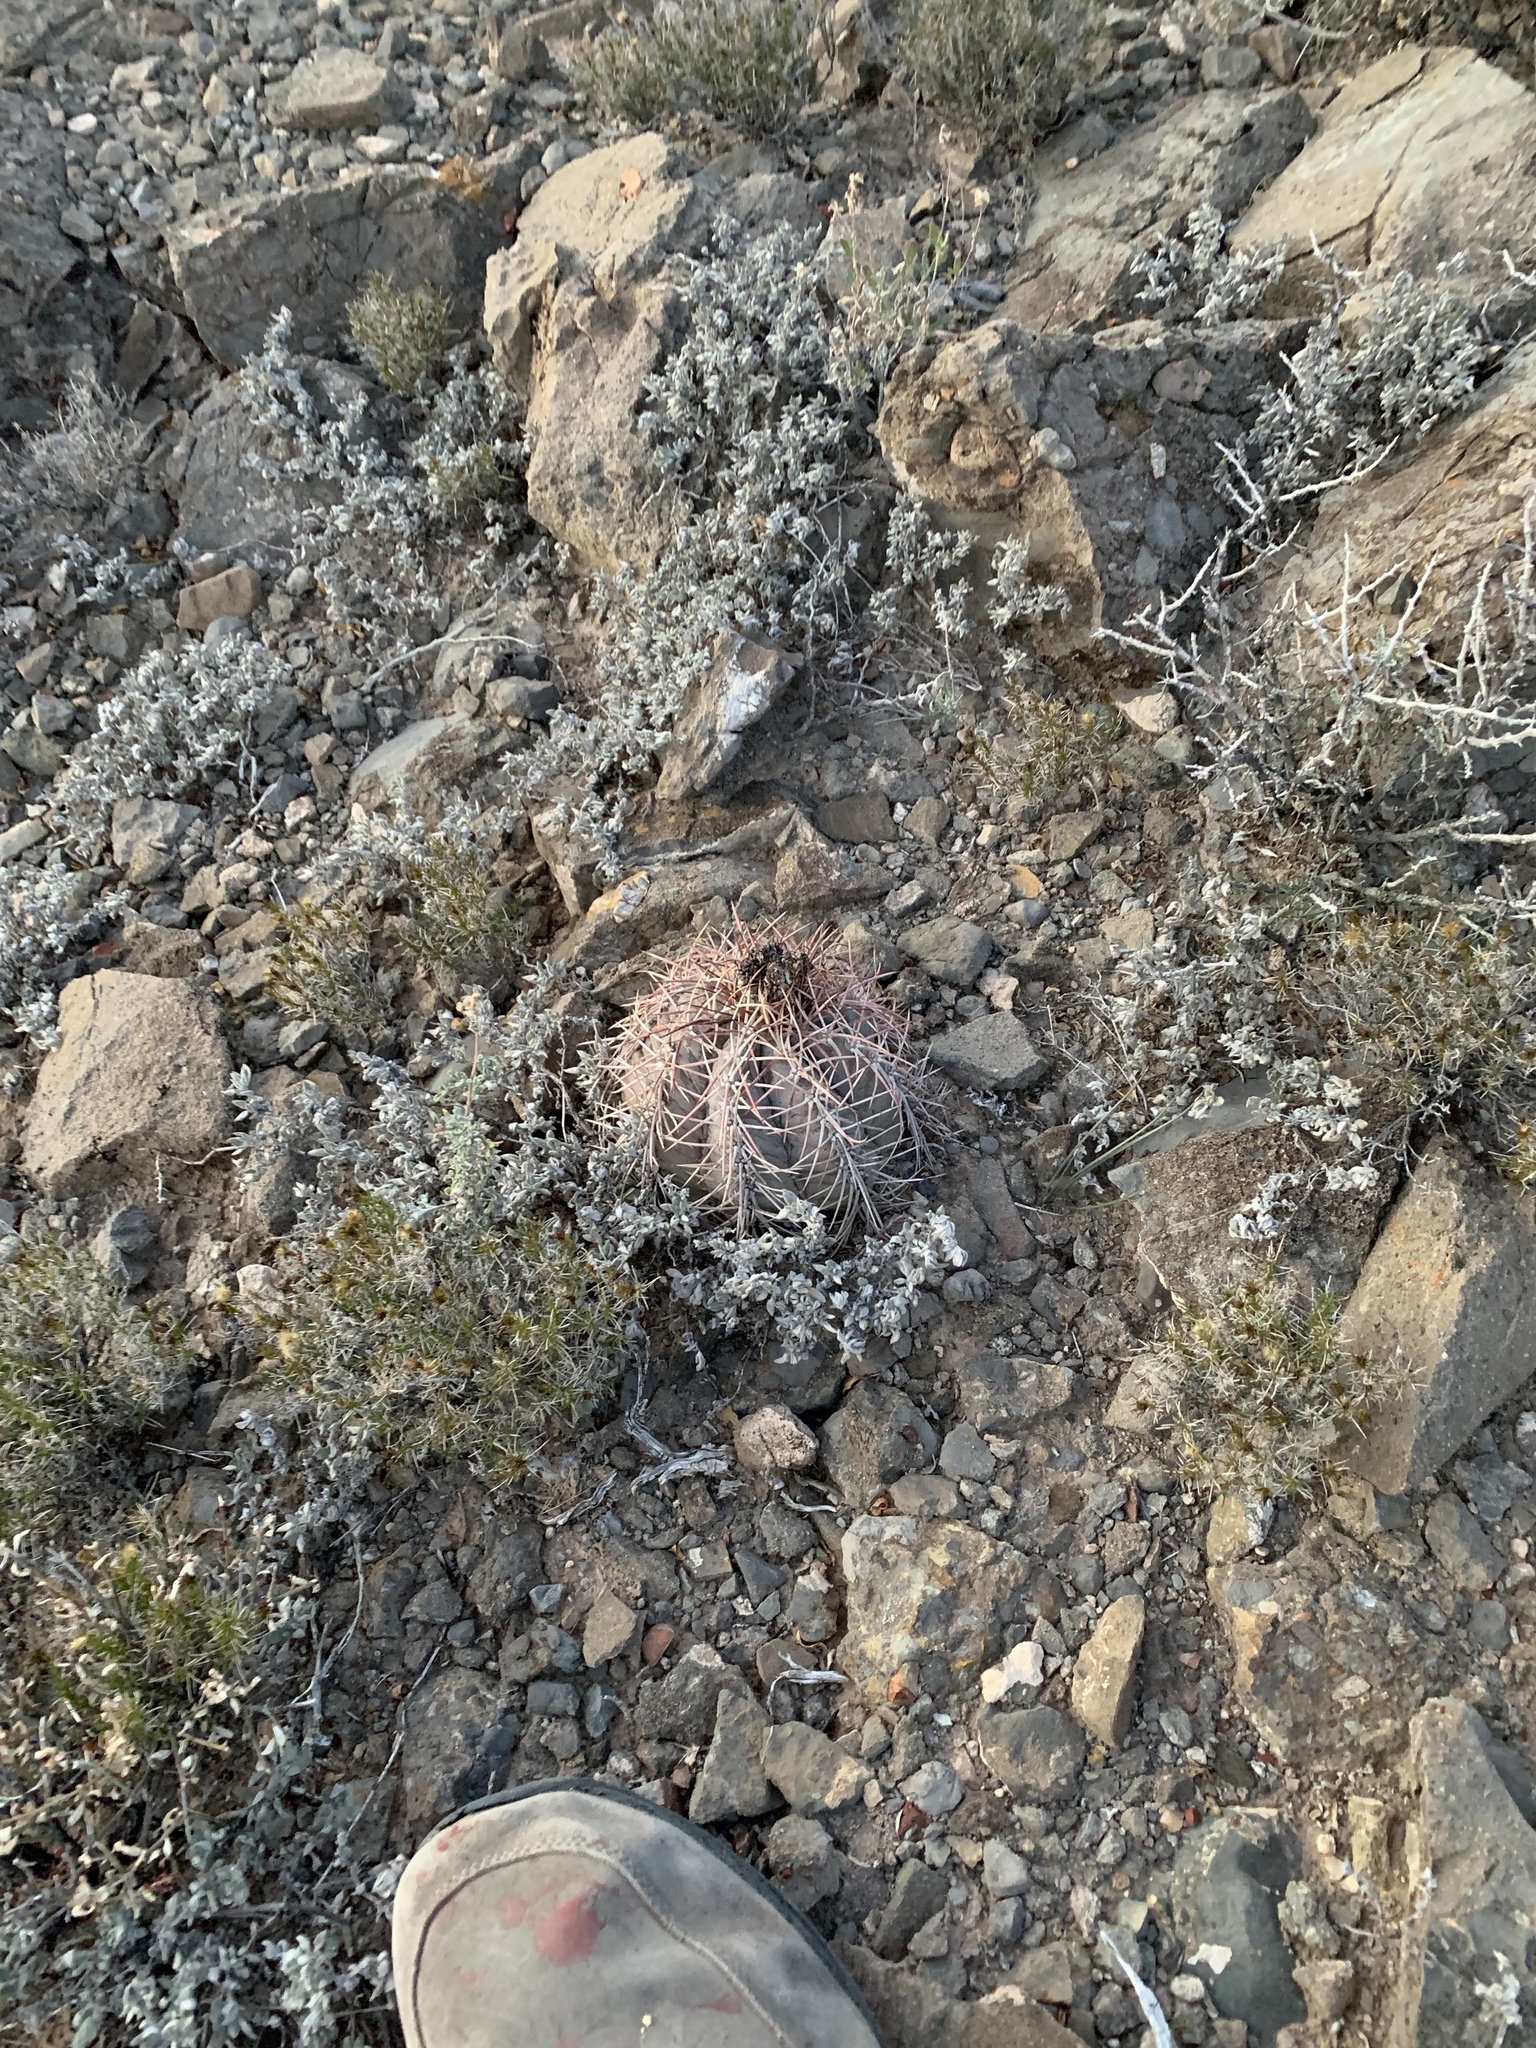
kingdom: Plantae
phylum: Tracheophyta
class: Magnoliopsida
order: Caryophyllales
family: Cactaceae
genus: Echinocactus
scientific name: Echinocactus horizonthalonius
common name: Devilshead
